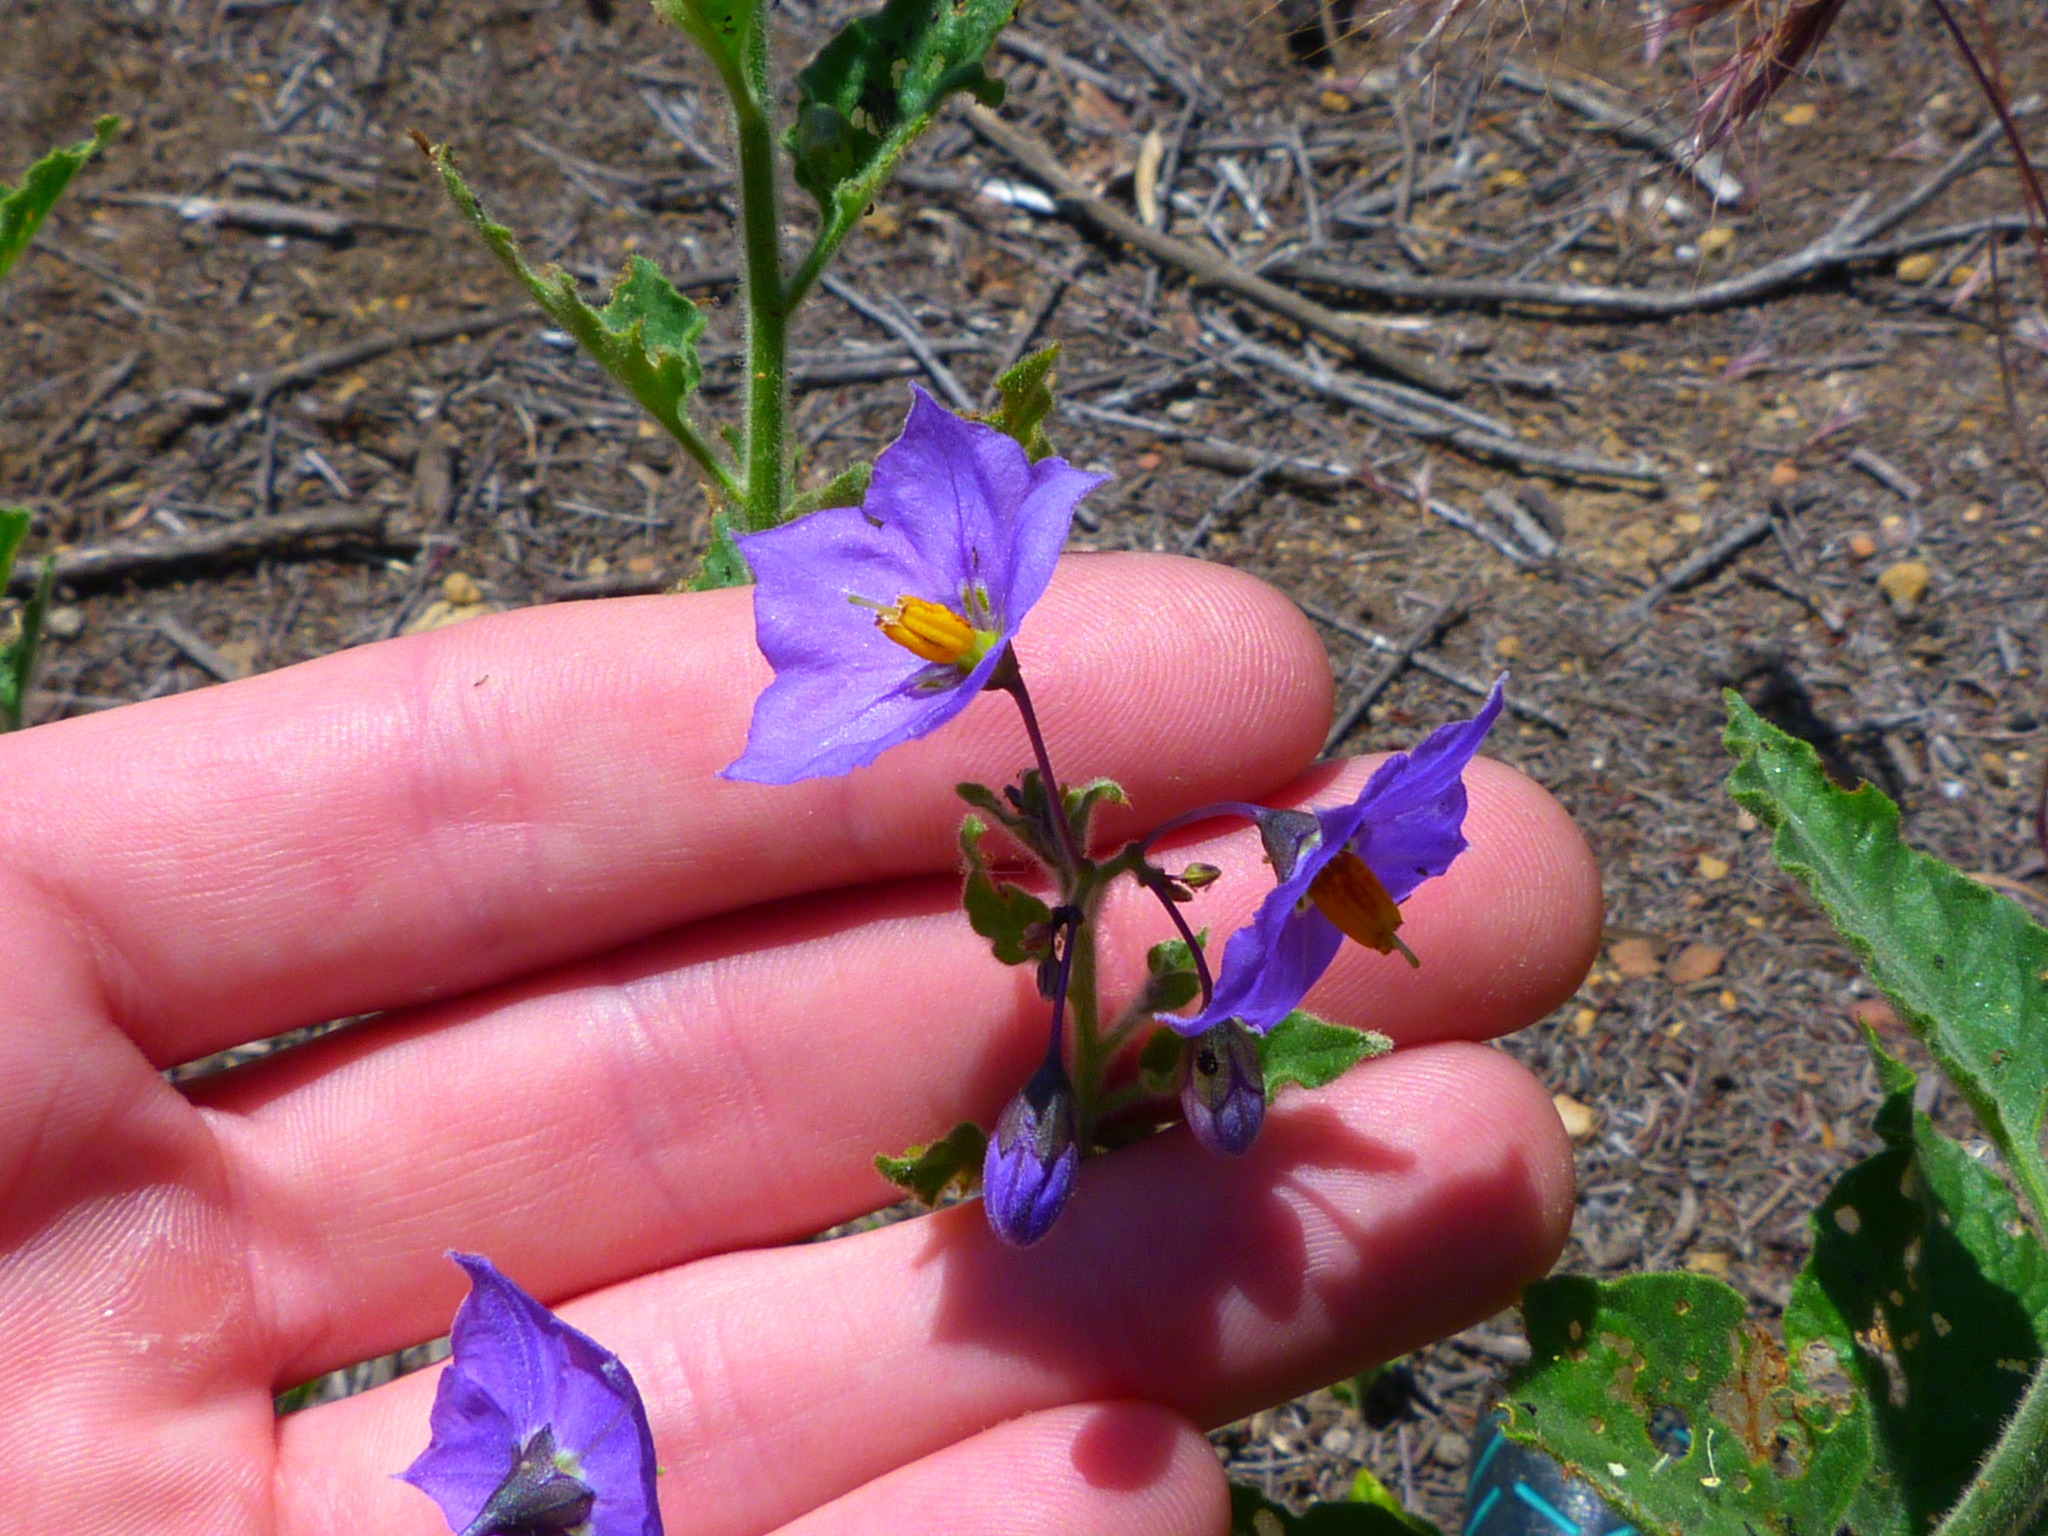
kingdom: Plantae
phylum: Tracheophyta
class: Magnoliopsida
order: Solanales
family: Solanaceae
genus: Solanum
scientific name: Solanum umbelliferum
